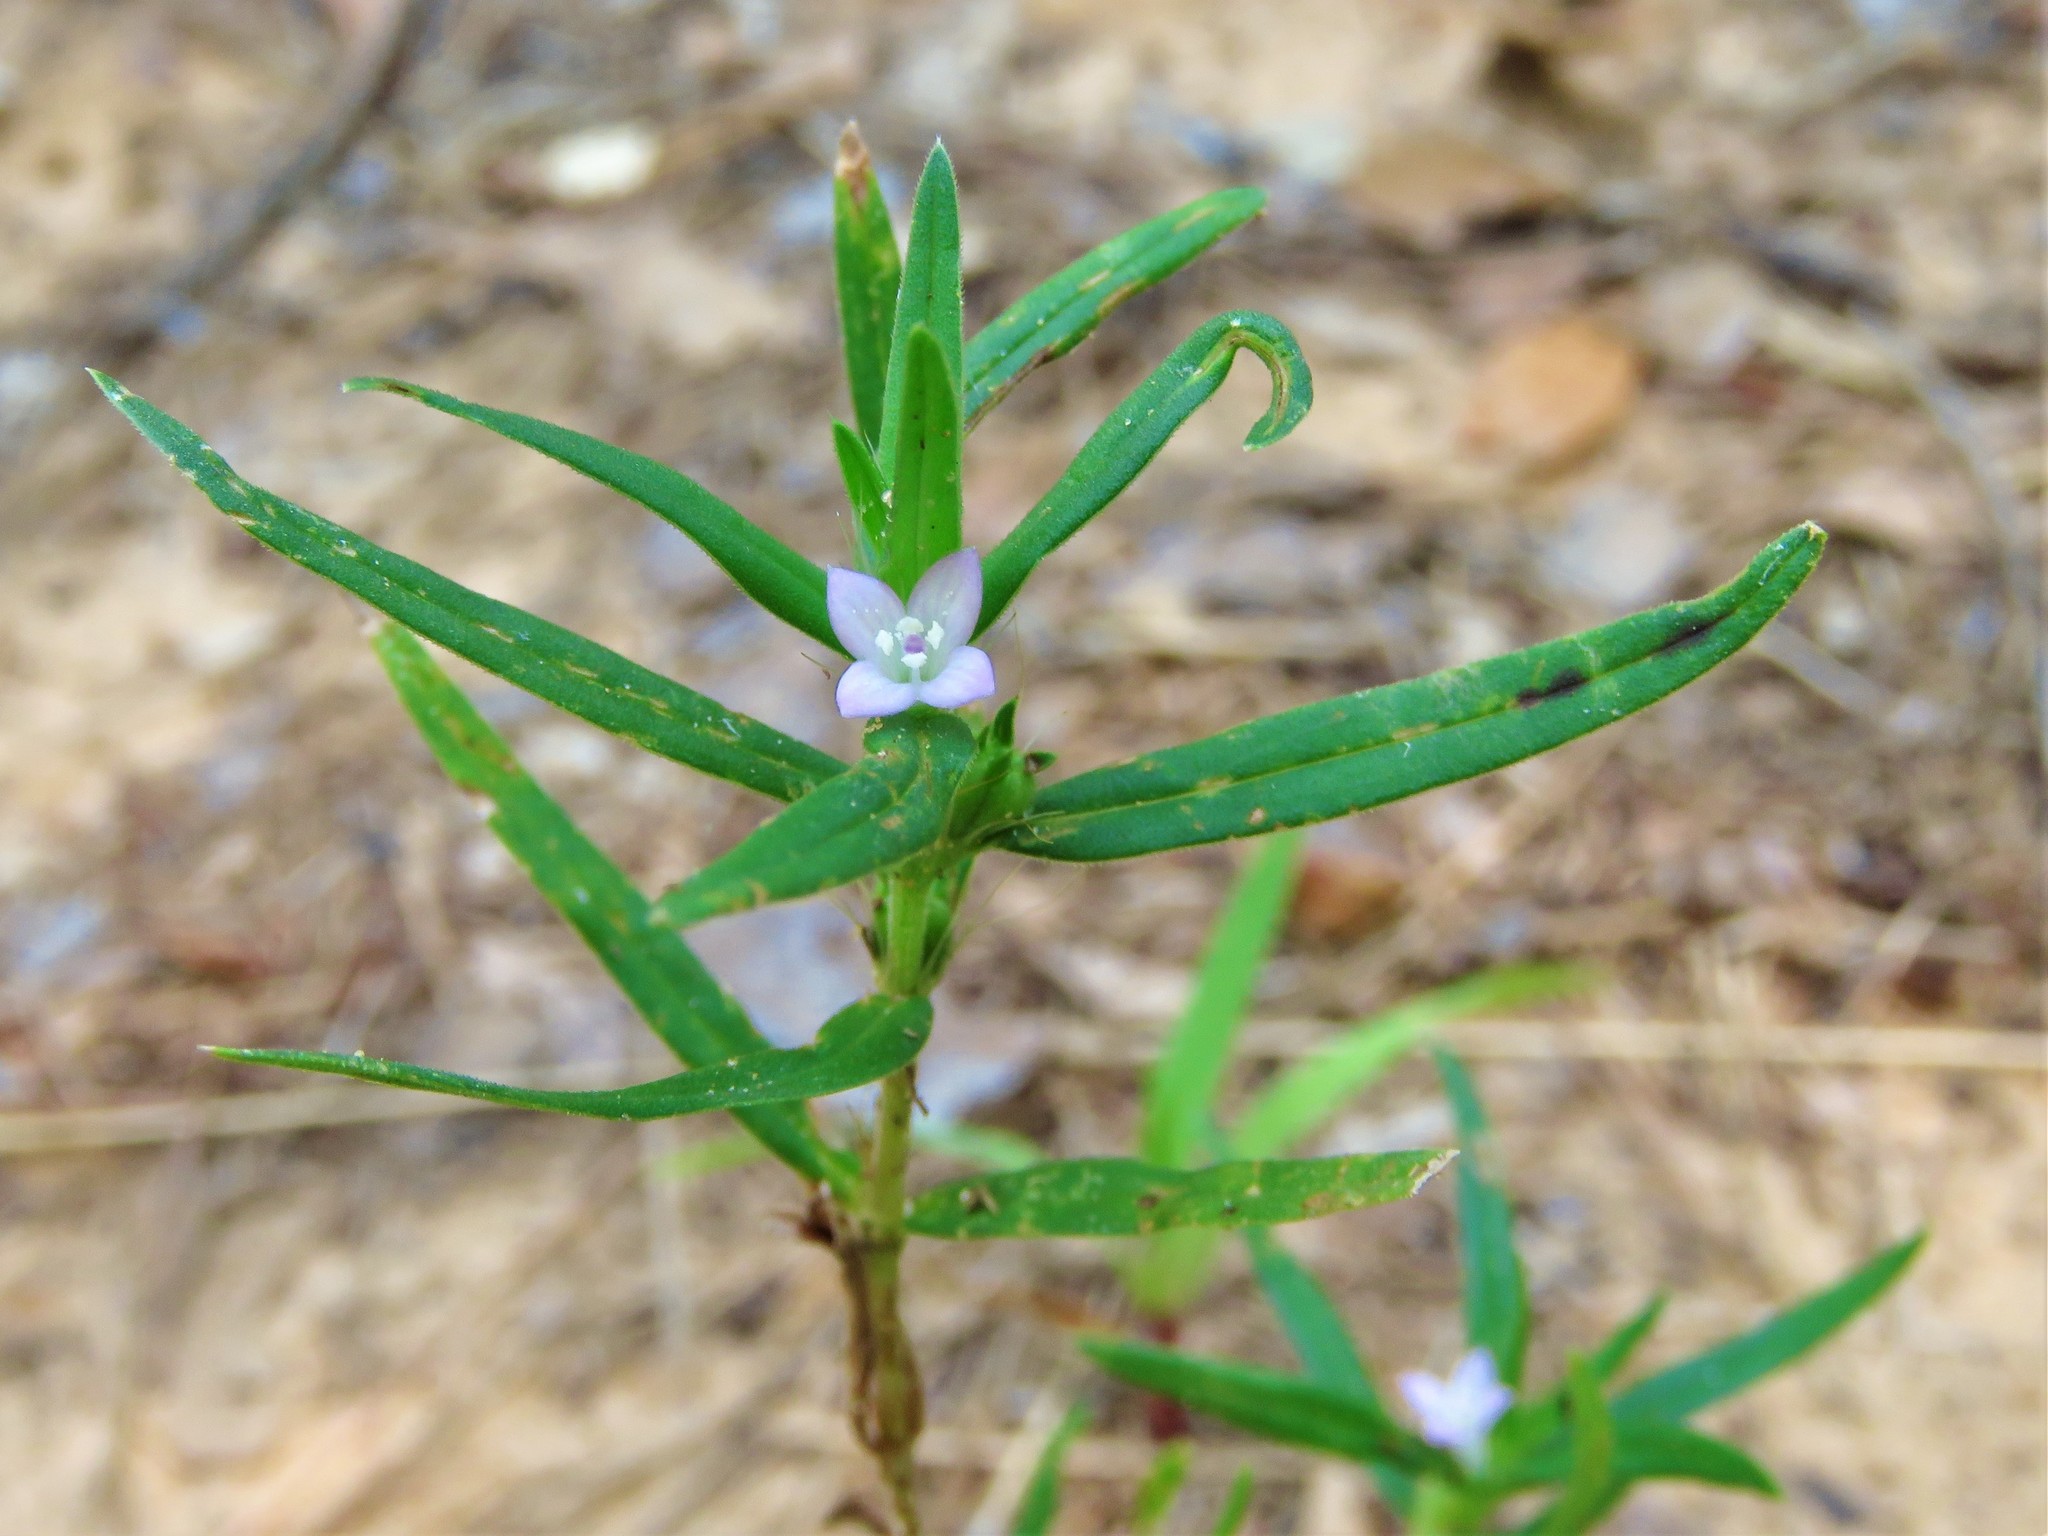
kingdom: Plantae
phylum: Tracheophyta
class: Magnoliopsida
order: Gentianales
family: Rubiaceae
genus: Hexasepalum
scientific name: Hexasepalum teres
